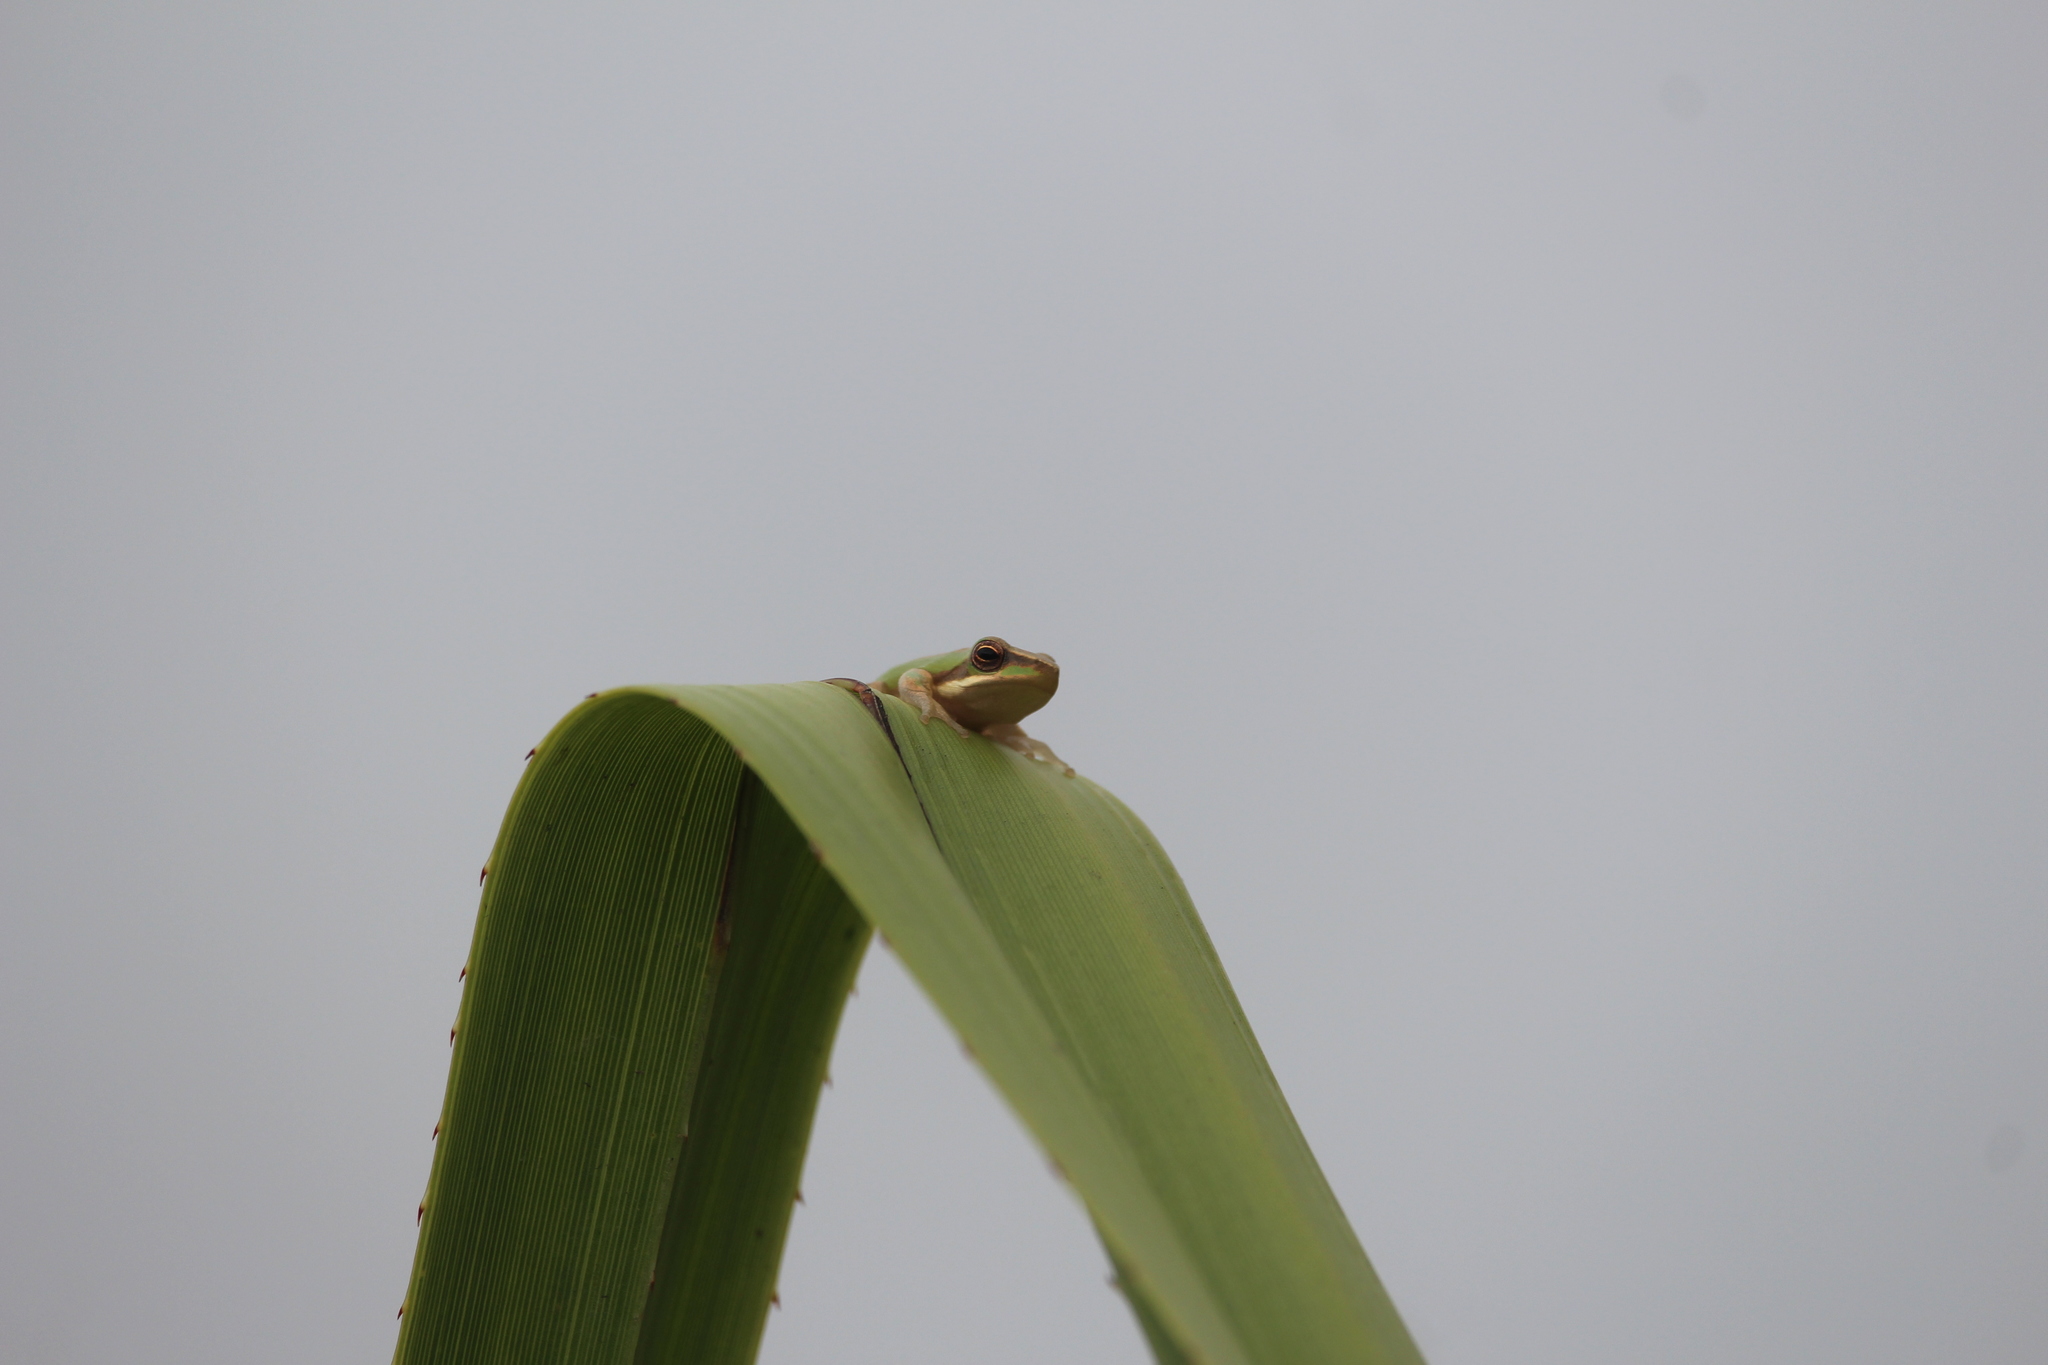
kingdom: Animalia
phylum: Chordata
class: Amphibia
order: Anura
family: Pelodryadidae
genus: Litoria
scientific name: Litoria fallax
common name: Eastern dwarf treefrog
